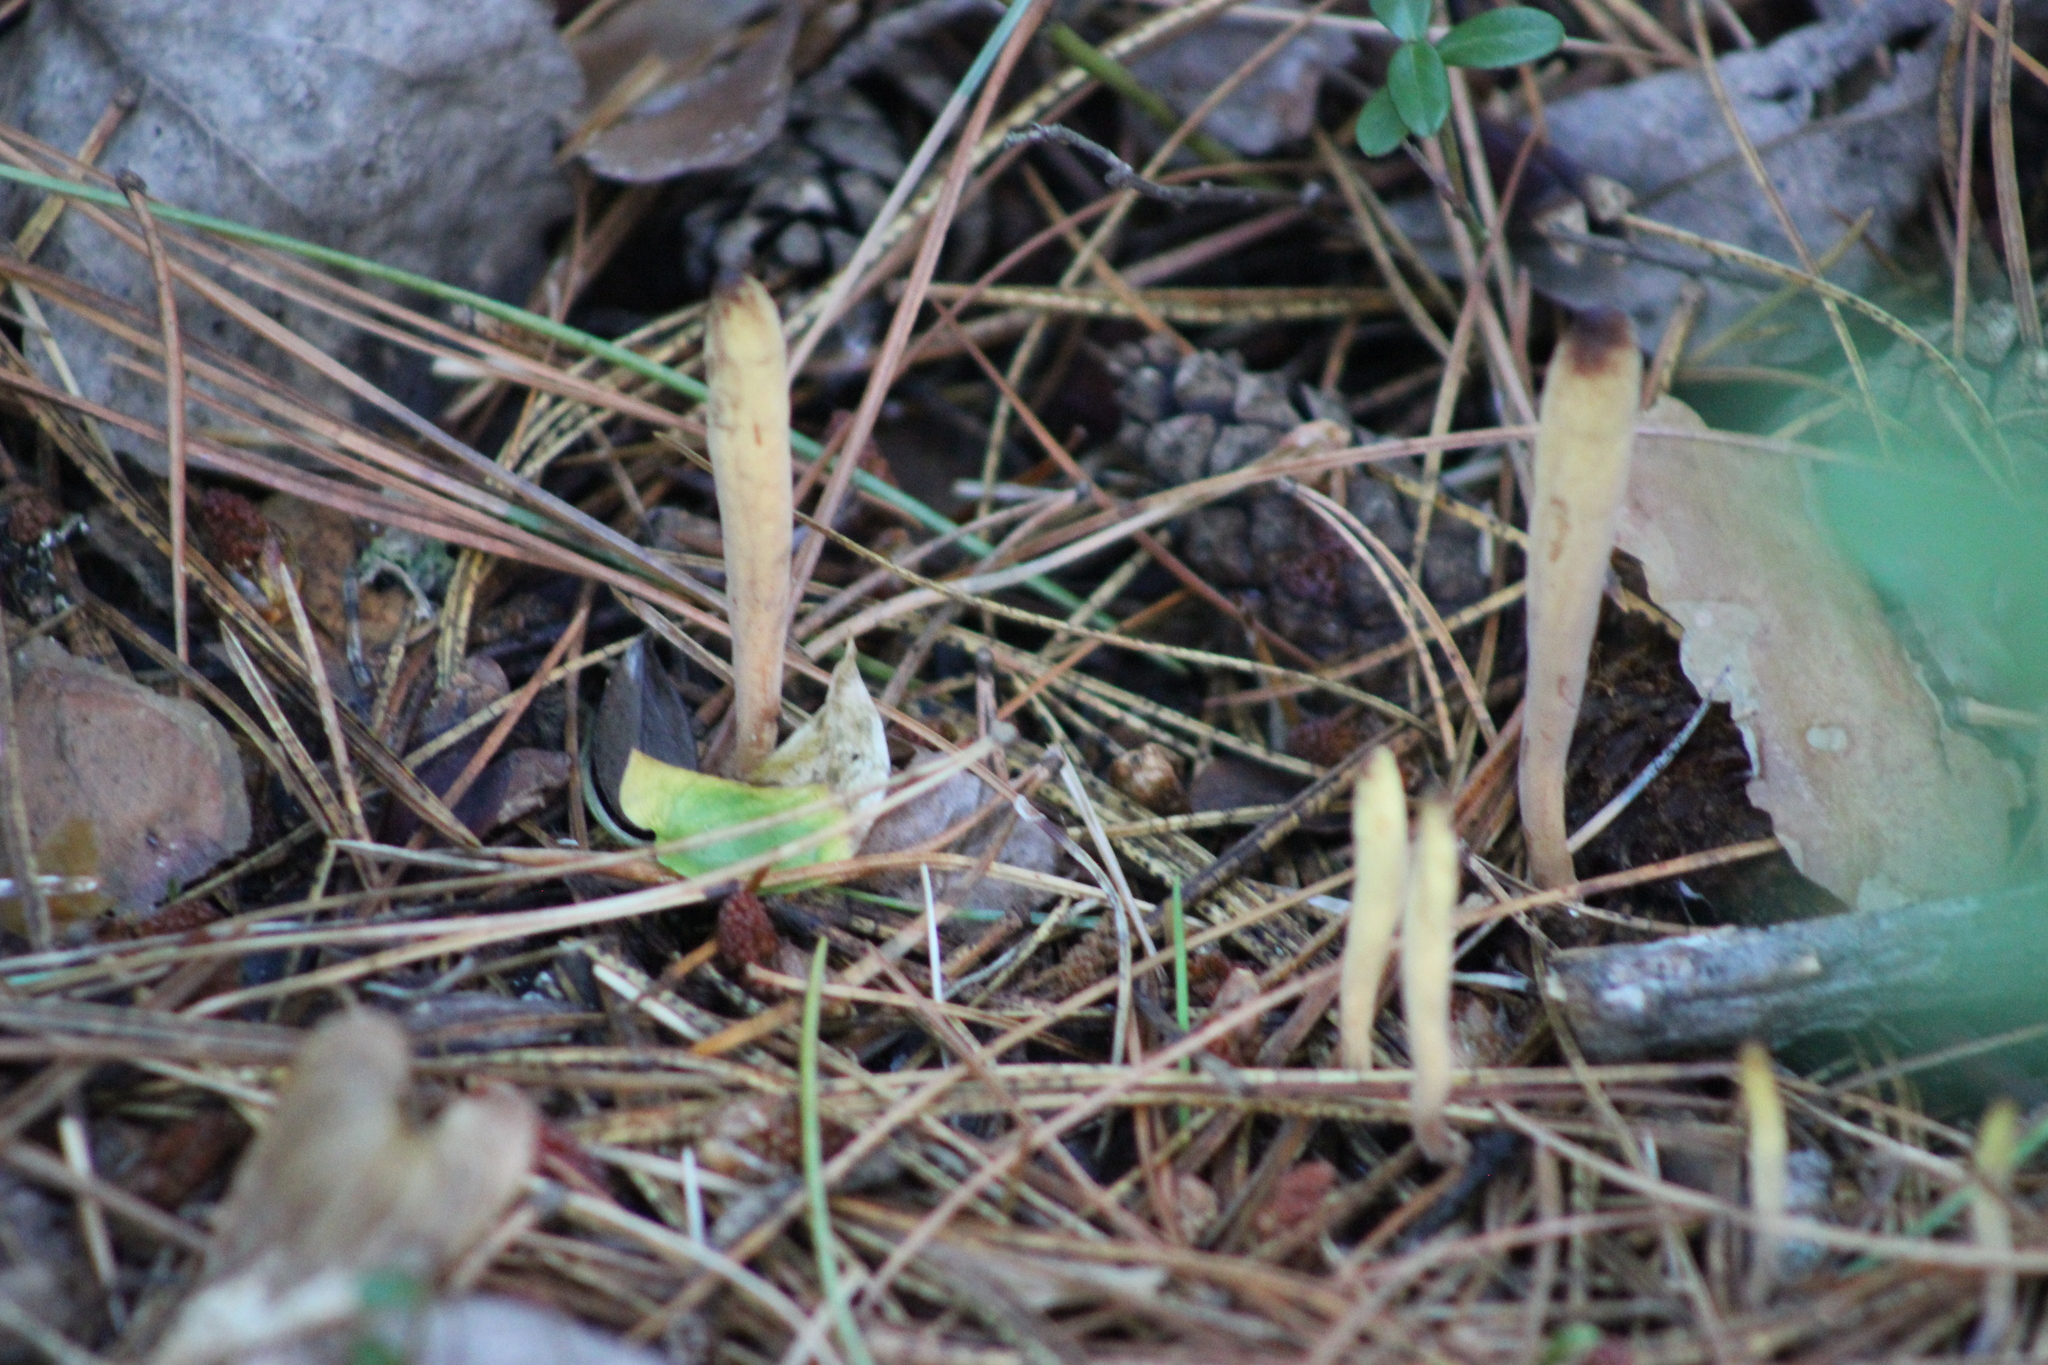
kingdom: Fungi
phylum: Basidiomycota
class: Agaricomycetes
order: Gomphales
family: Clavariadelphaceae
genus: Clavariadelphus
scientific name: Clavariadelphus ligula
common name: Ochre club
